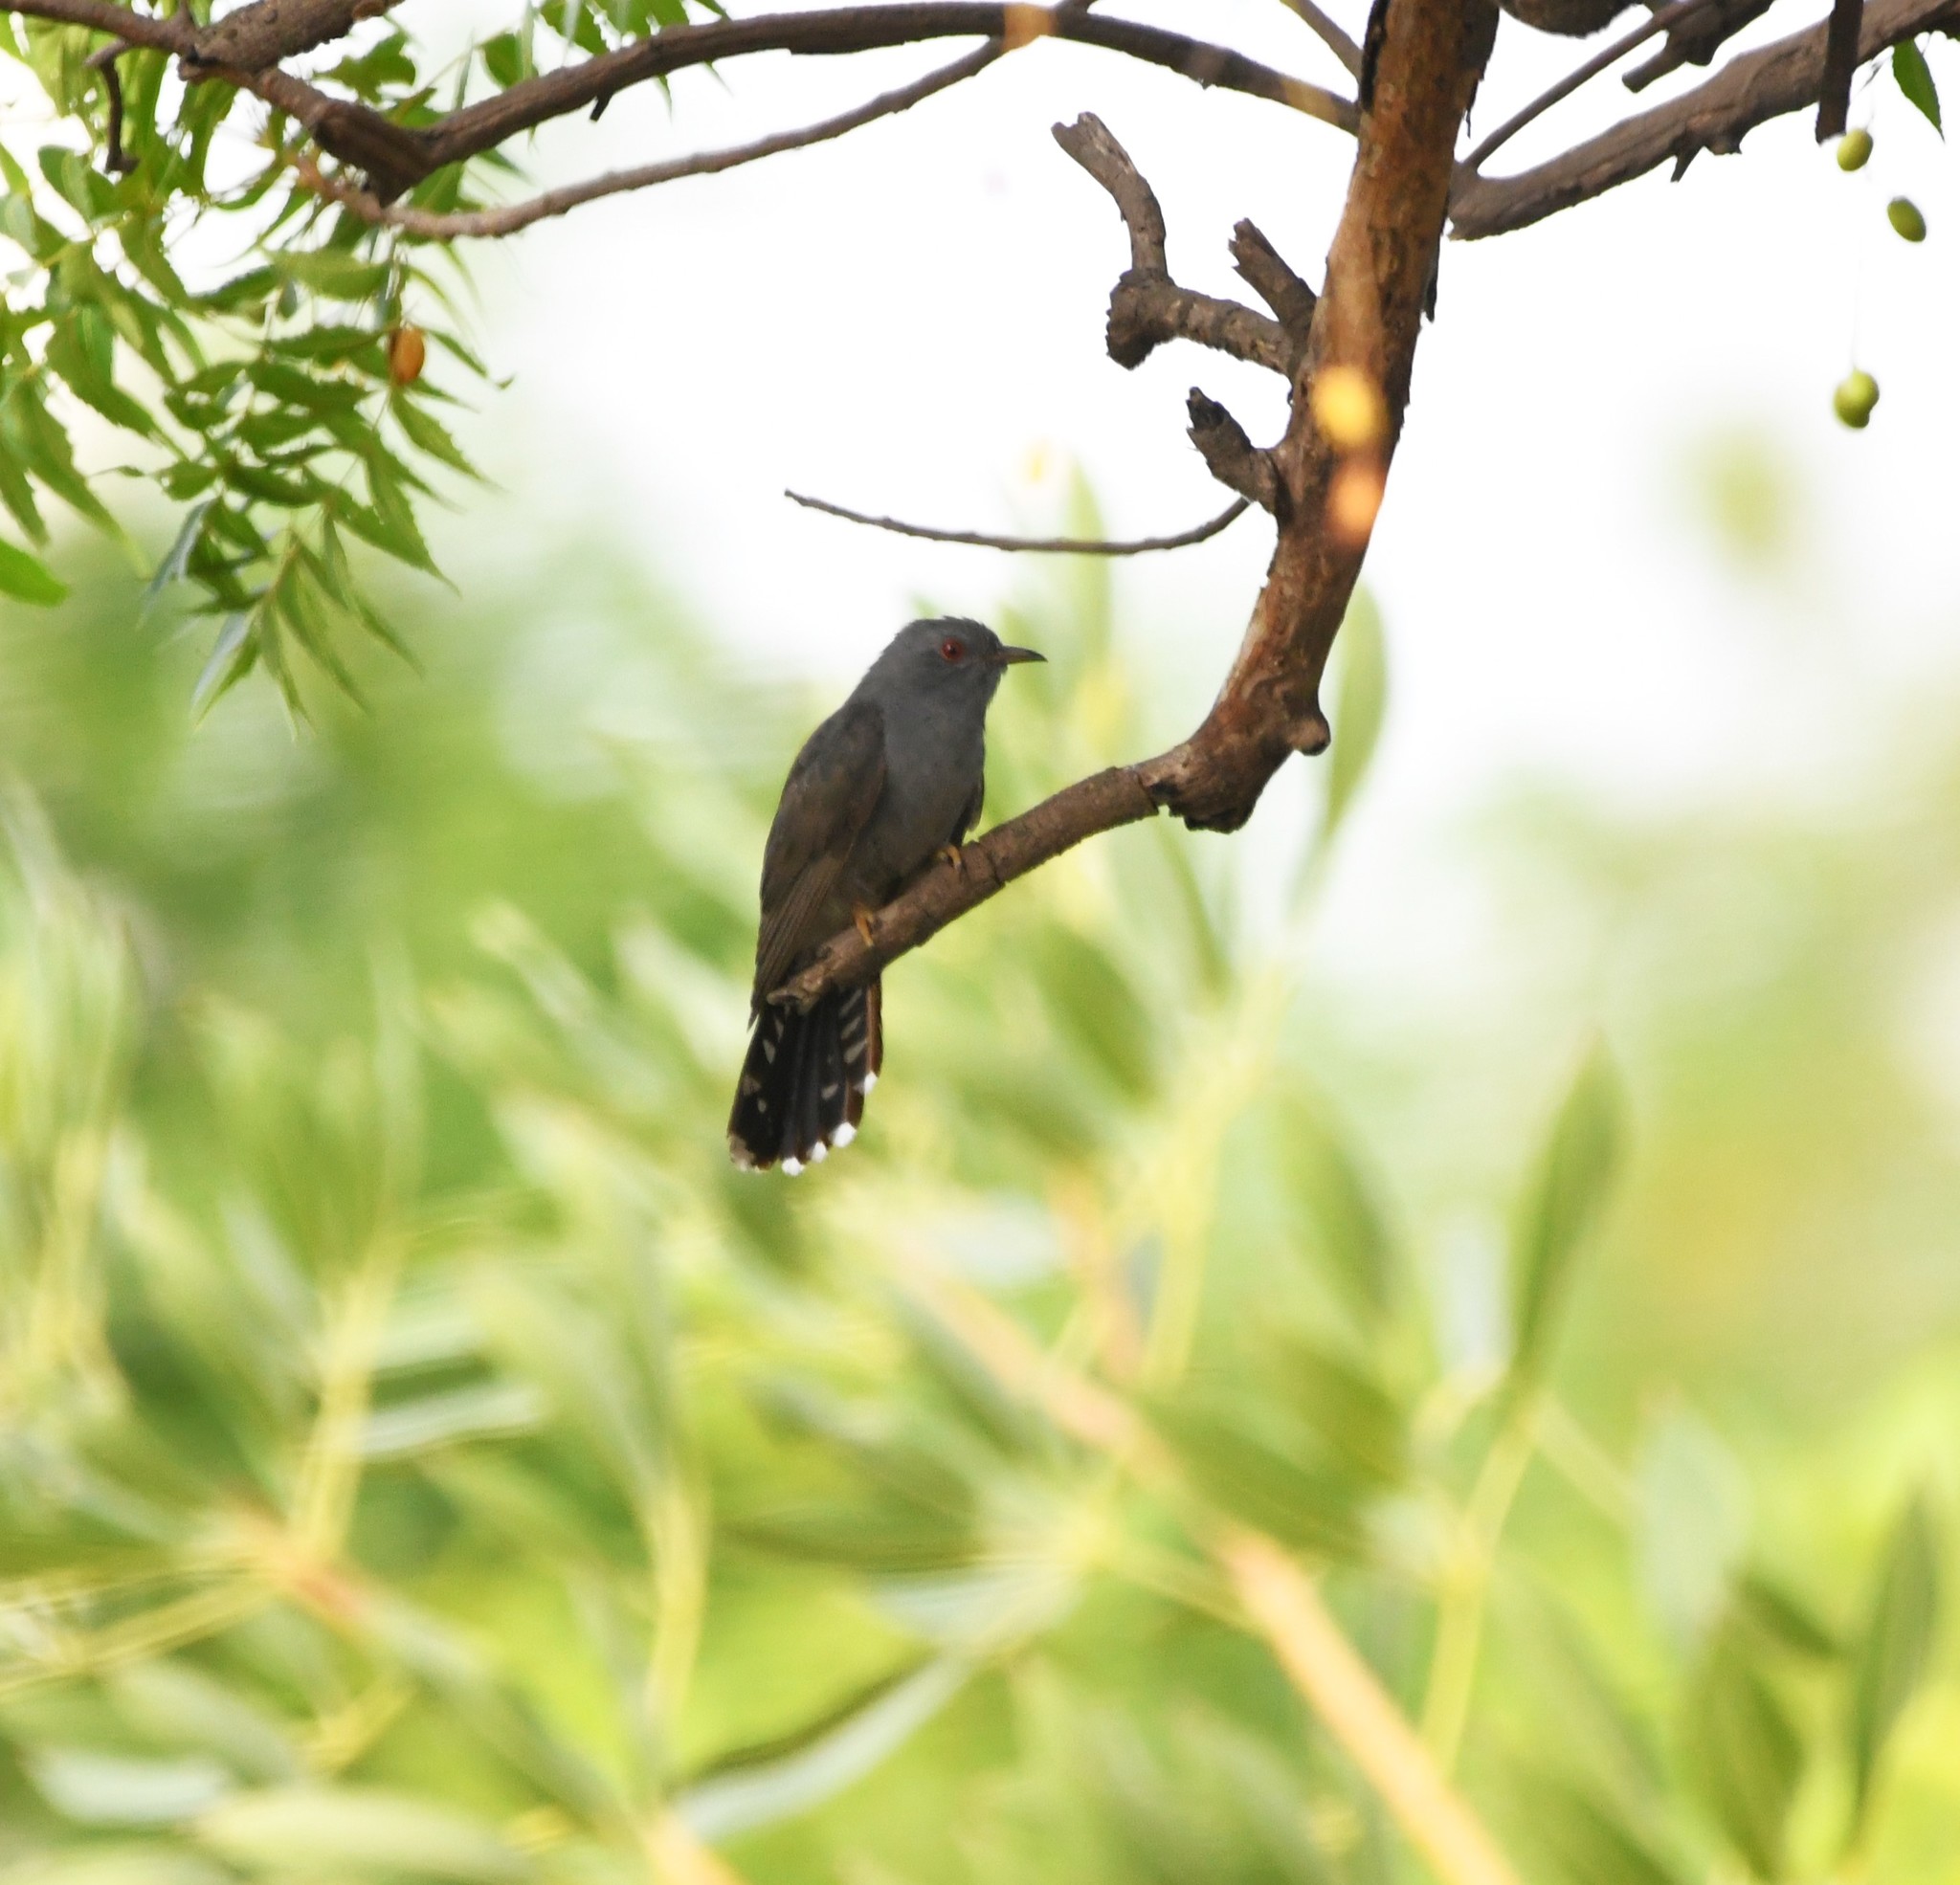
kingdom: Animalia
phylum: Chordata
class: Aves
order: Cuculiformes
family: Cuculidae
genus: Cacomantis
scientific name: Cacomantis passerinus
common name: Grey-bellied cuckoo
